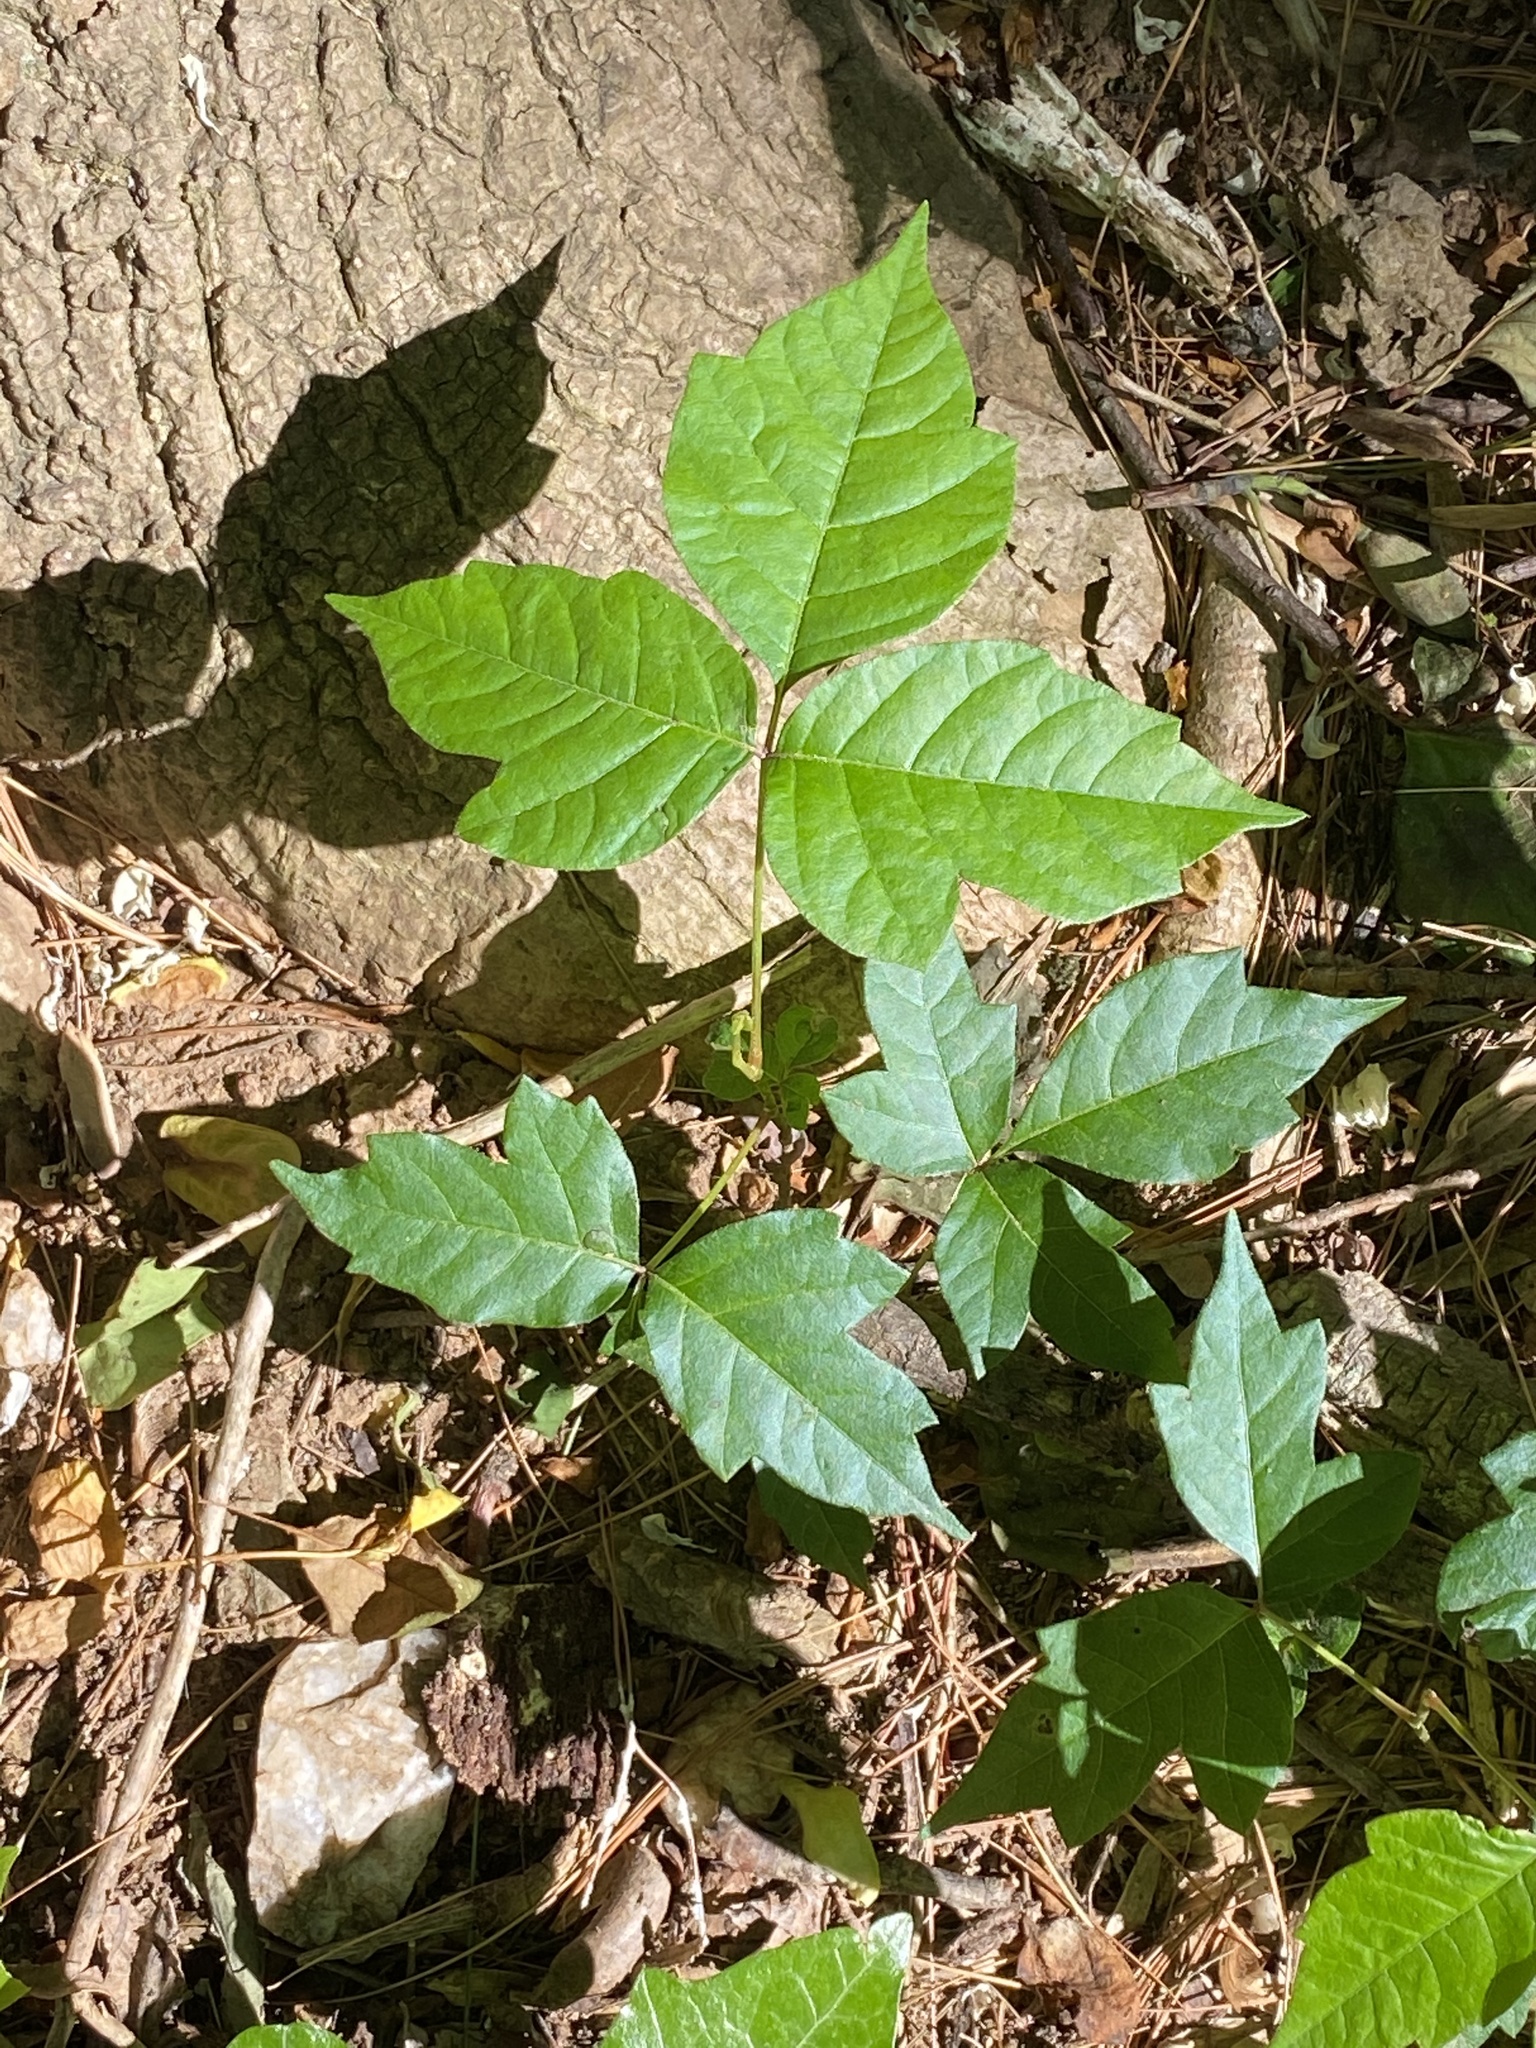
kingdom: Plantae
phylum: Tracheophyta
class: Magnoliopsida
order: Sapindales
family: Anacardiaceae
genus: Toxicodendron
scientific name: Toxicodendron radicans
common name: Poison ivy
